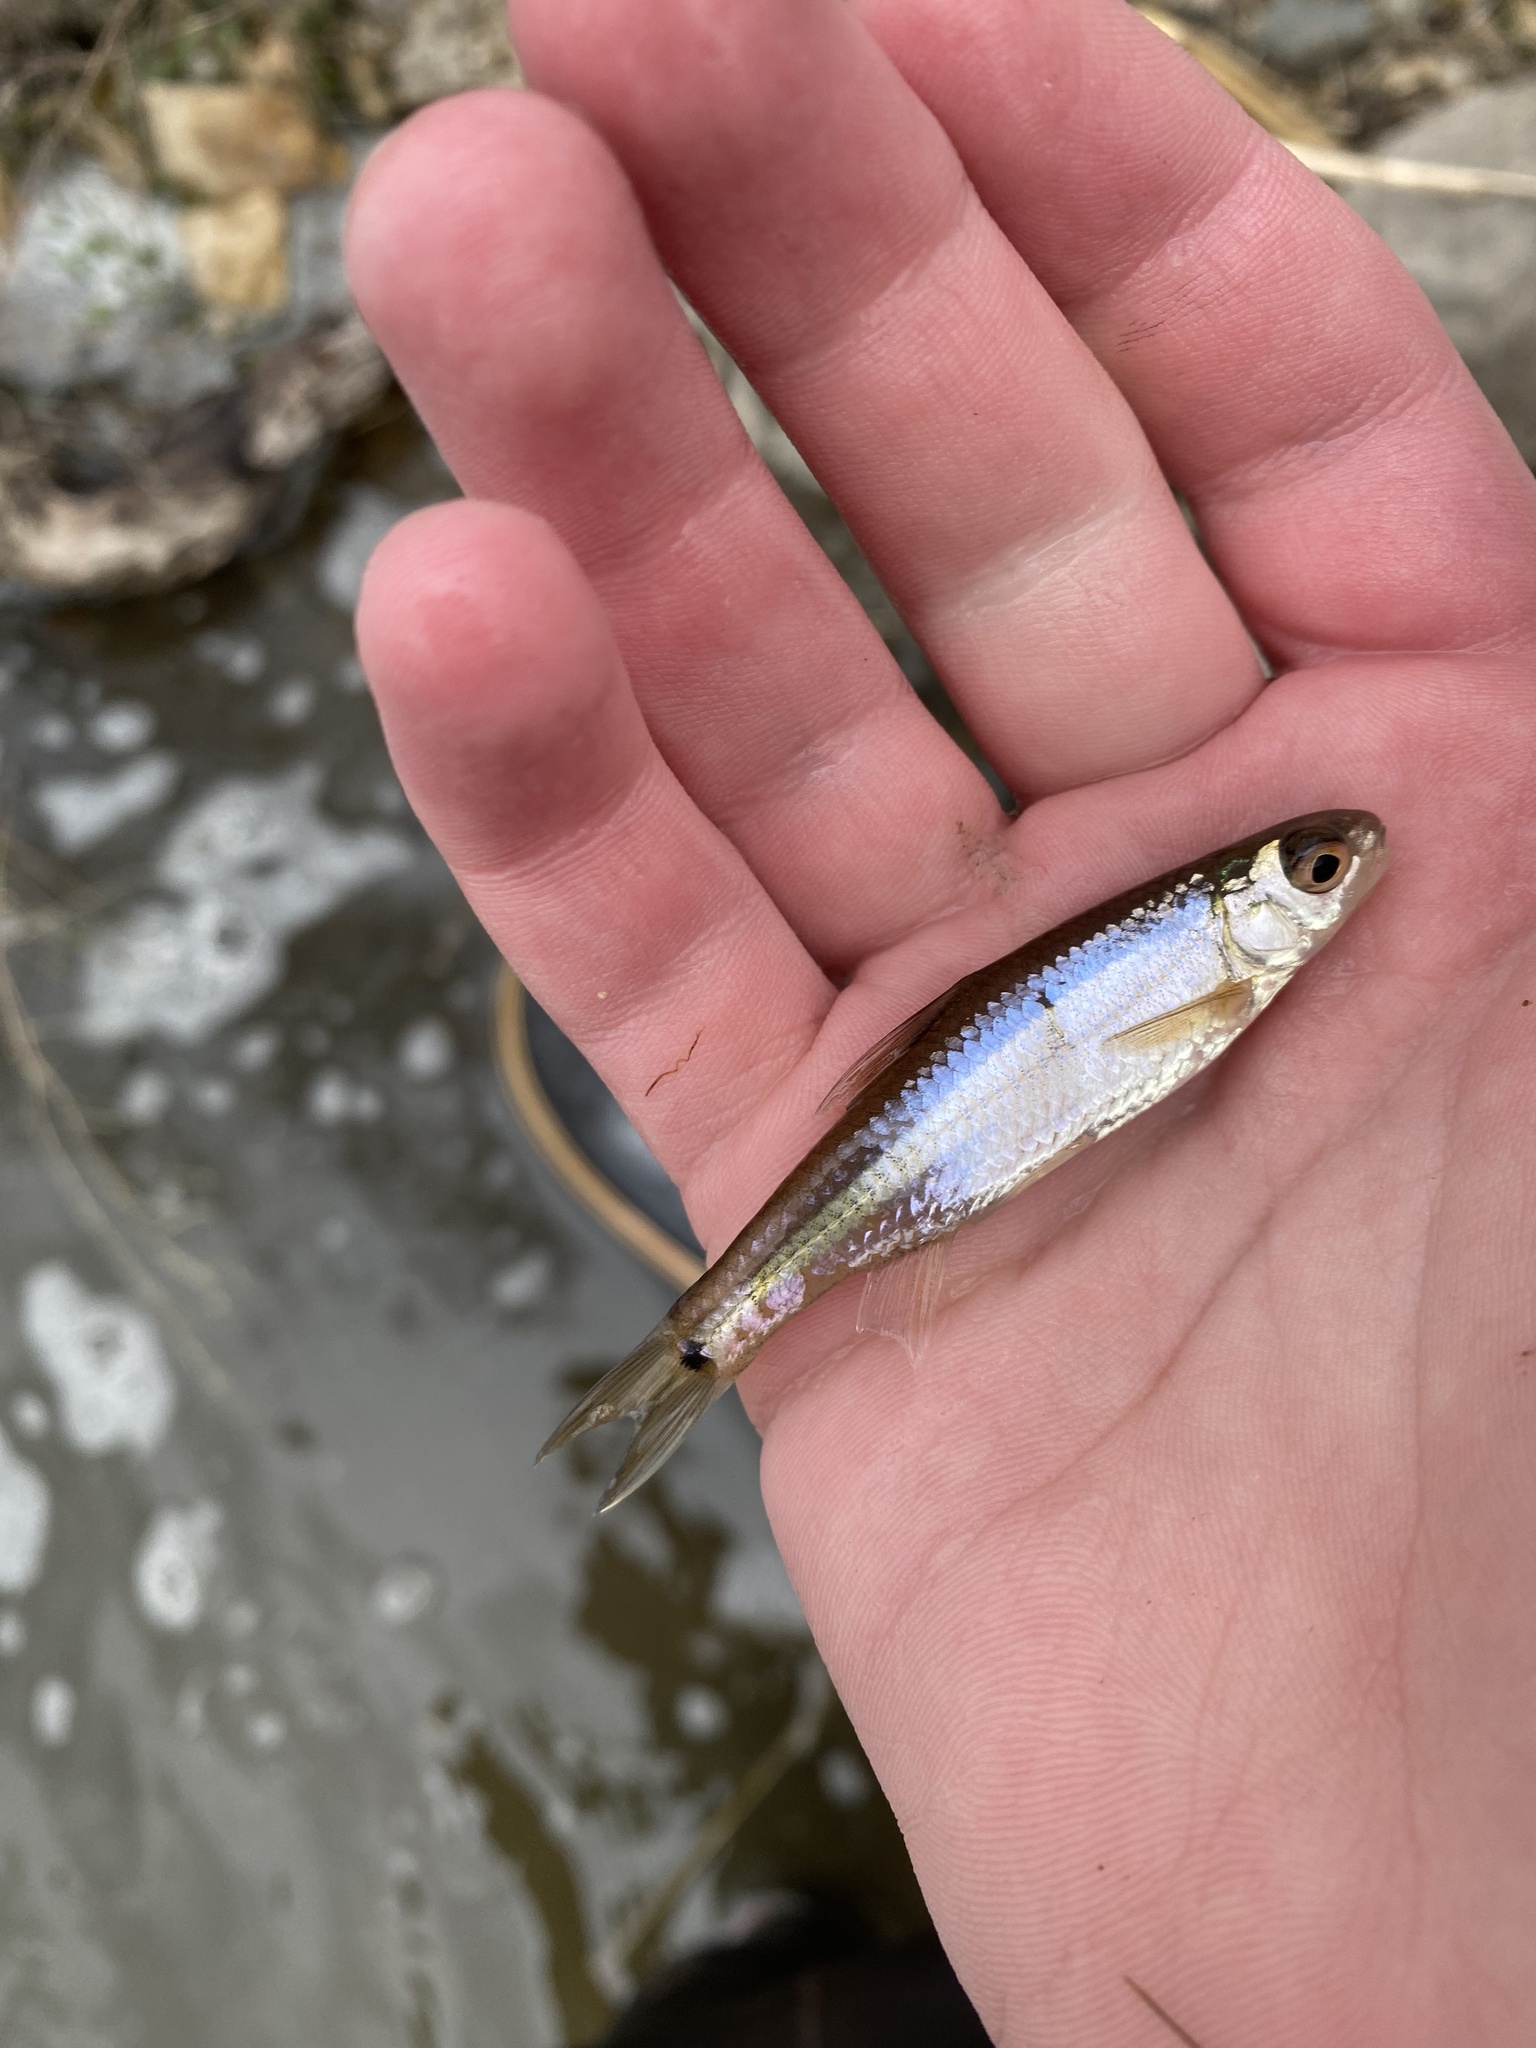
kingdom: Animalia
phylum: Chordata
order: Cypriniformes
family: Cyprinidae
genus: Notropis
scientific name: Notropis
